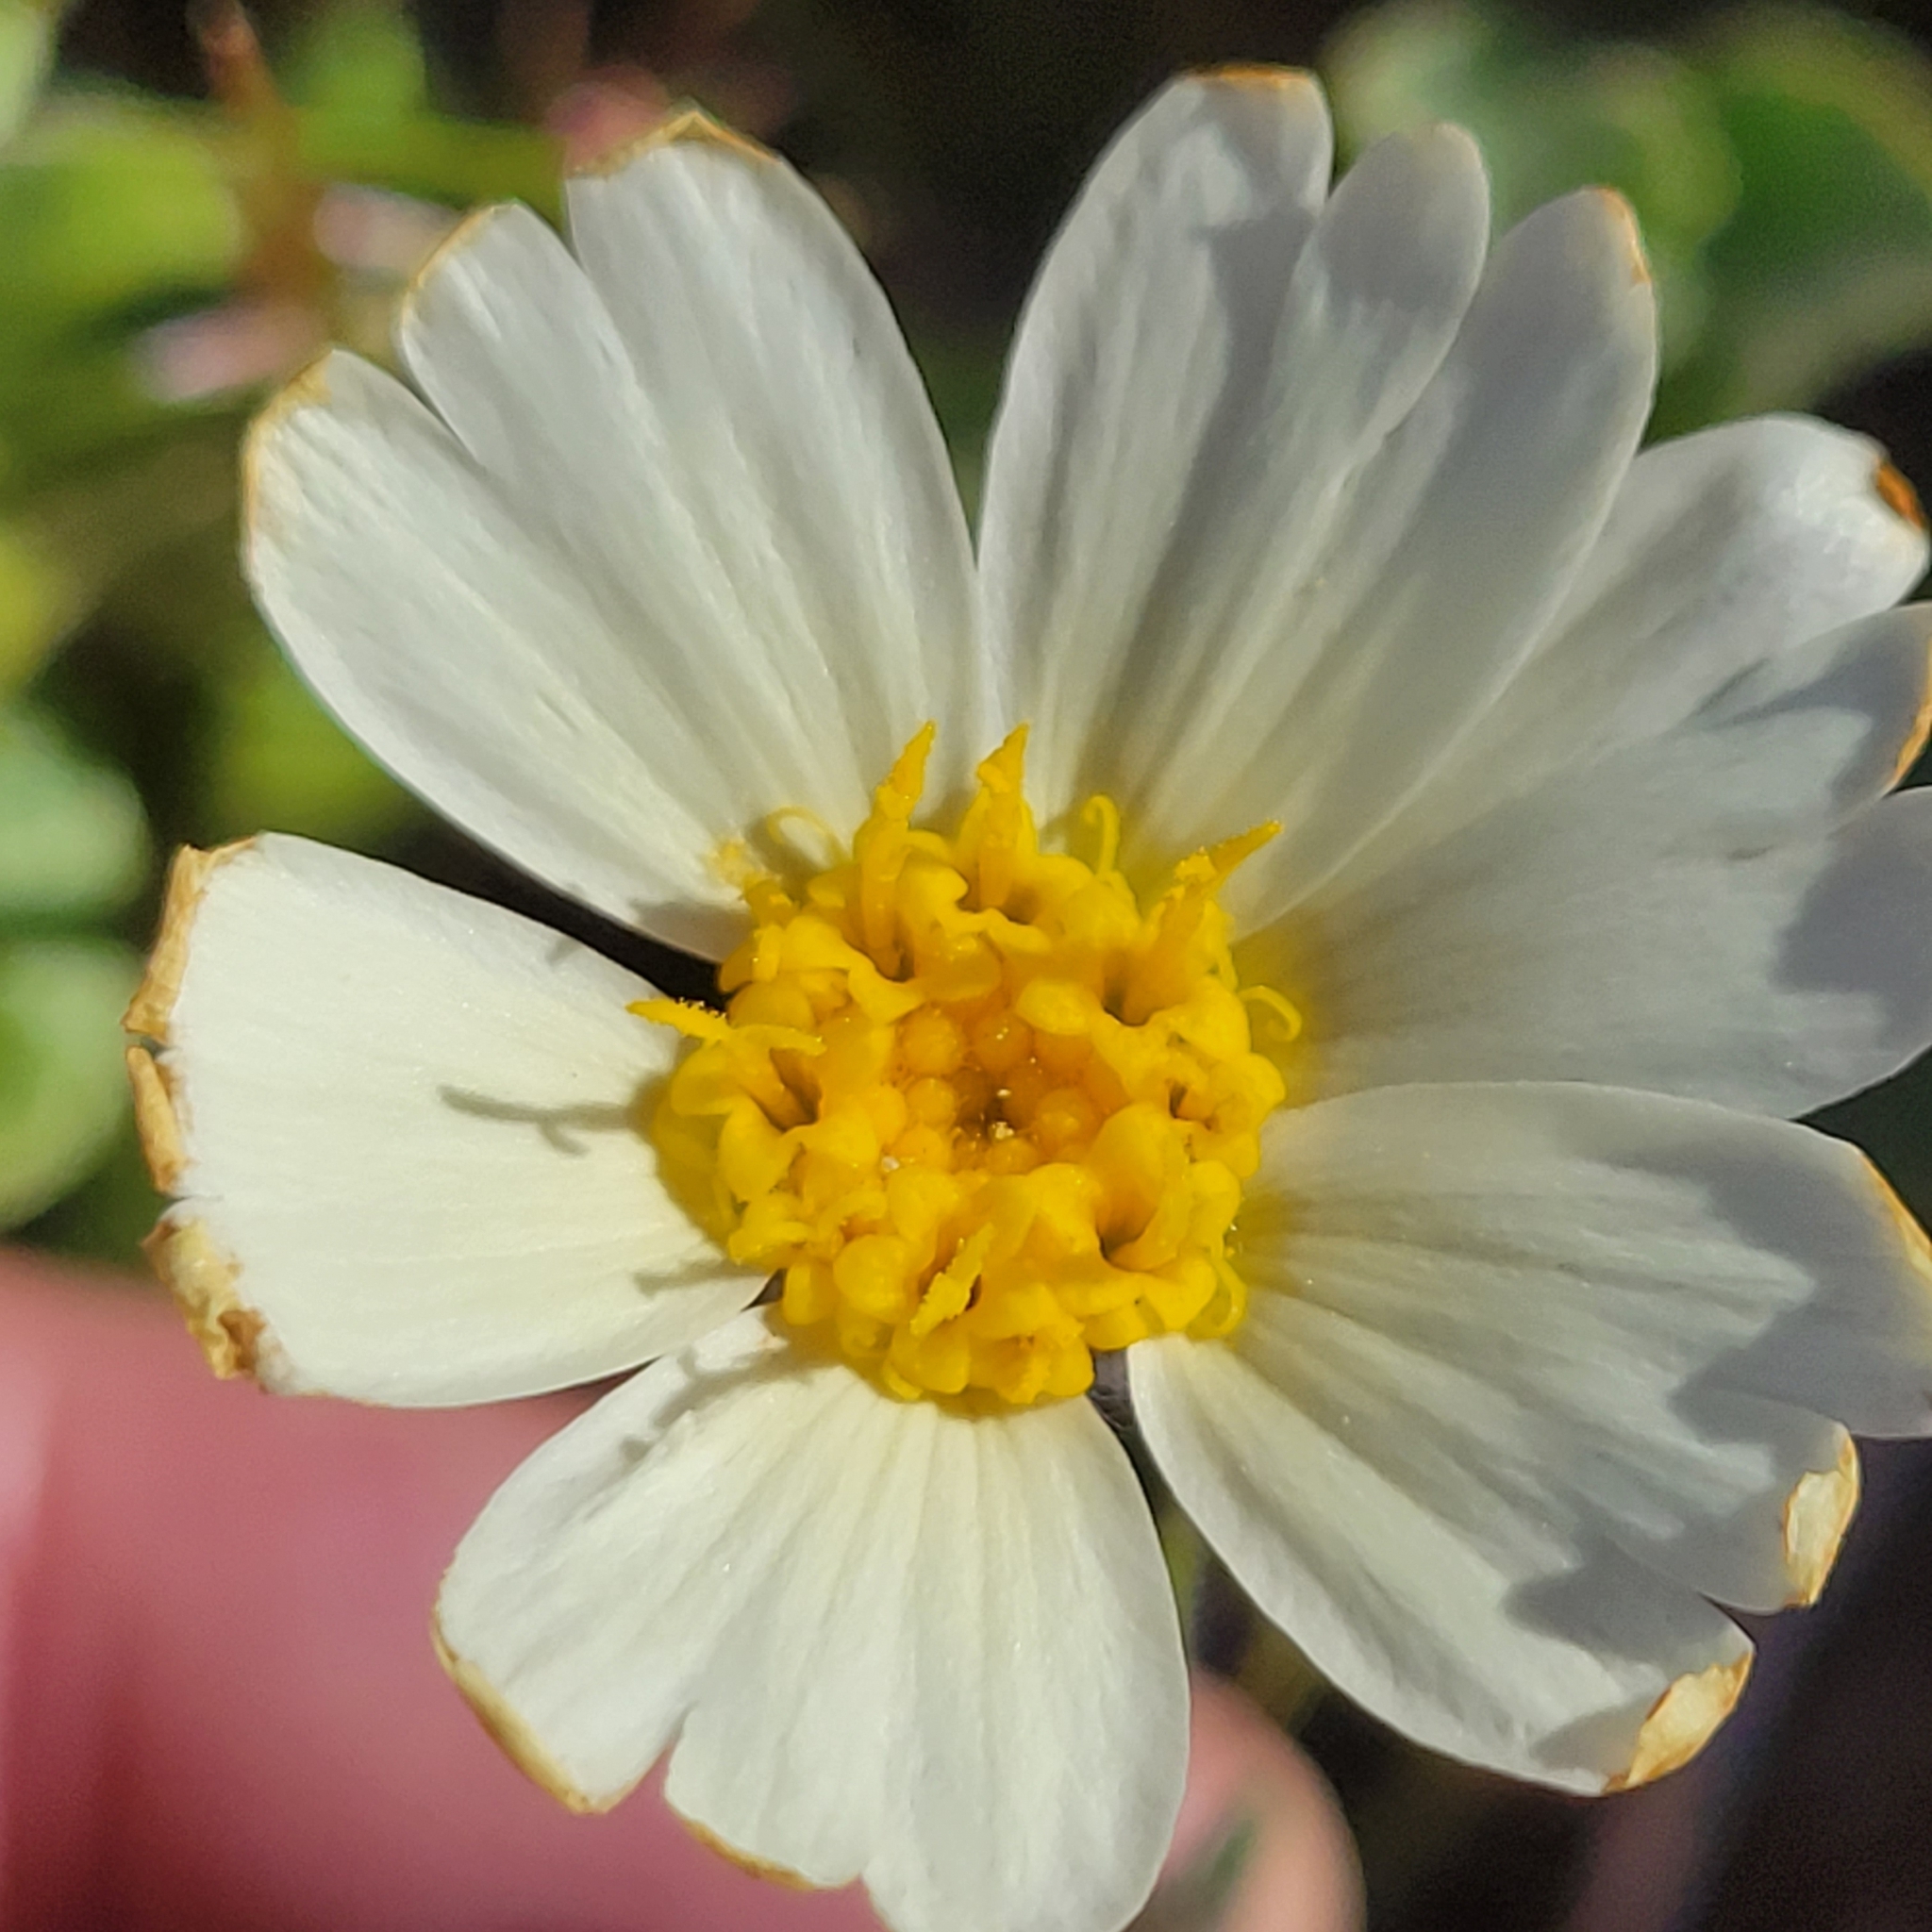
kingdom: Plantae
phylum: Tracheophyta
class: Magnoliopsida
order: Asterales
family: Asteraceae
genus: Layia
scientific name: Layia glandulosa
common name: White layia
